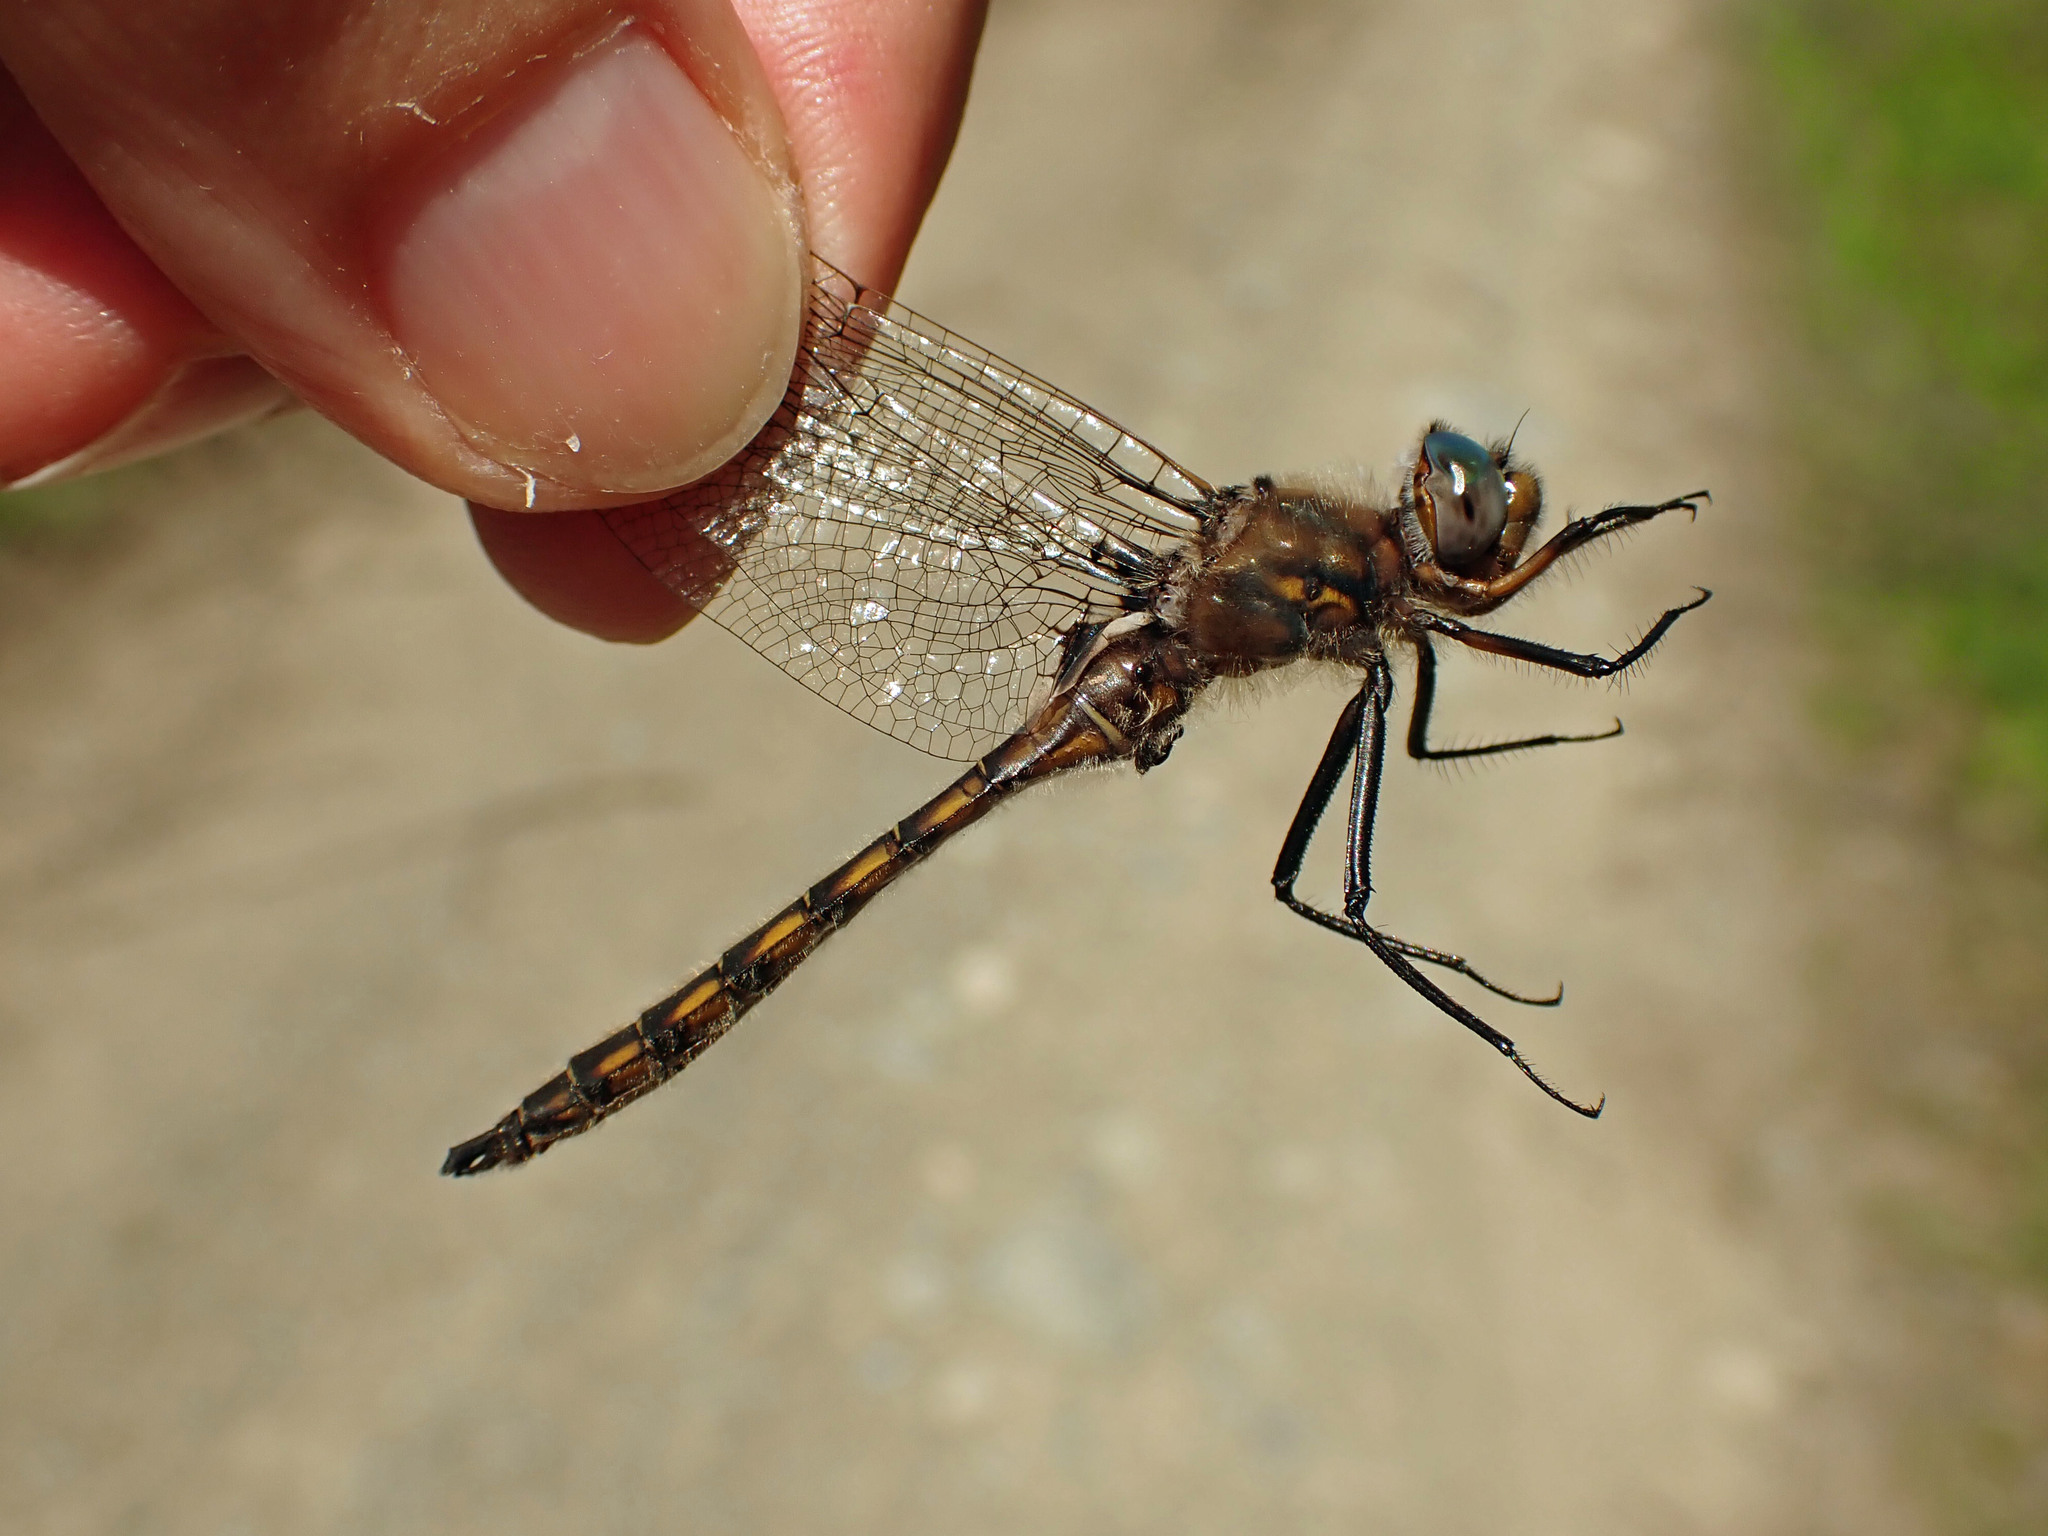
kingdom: Animalia
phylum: Arthropoda
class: Insecta
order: Odonata
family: Corduliidae
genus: Epitheca
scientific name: Epitheca canis
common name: Beaverpond baskettail
